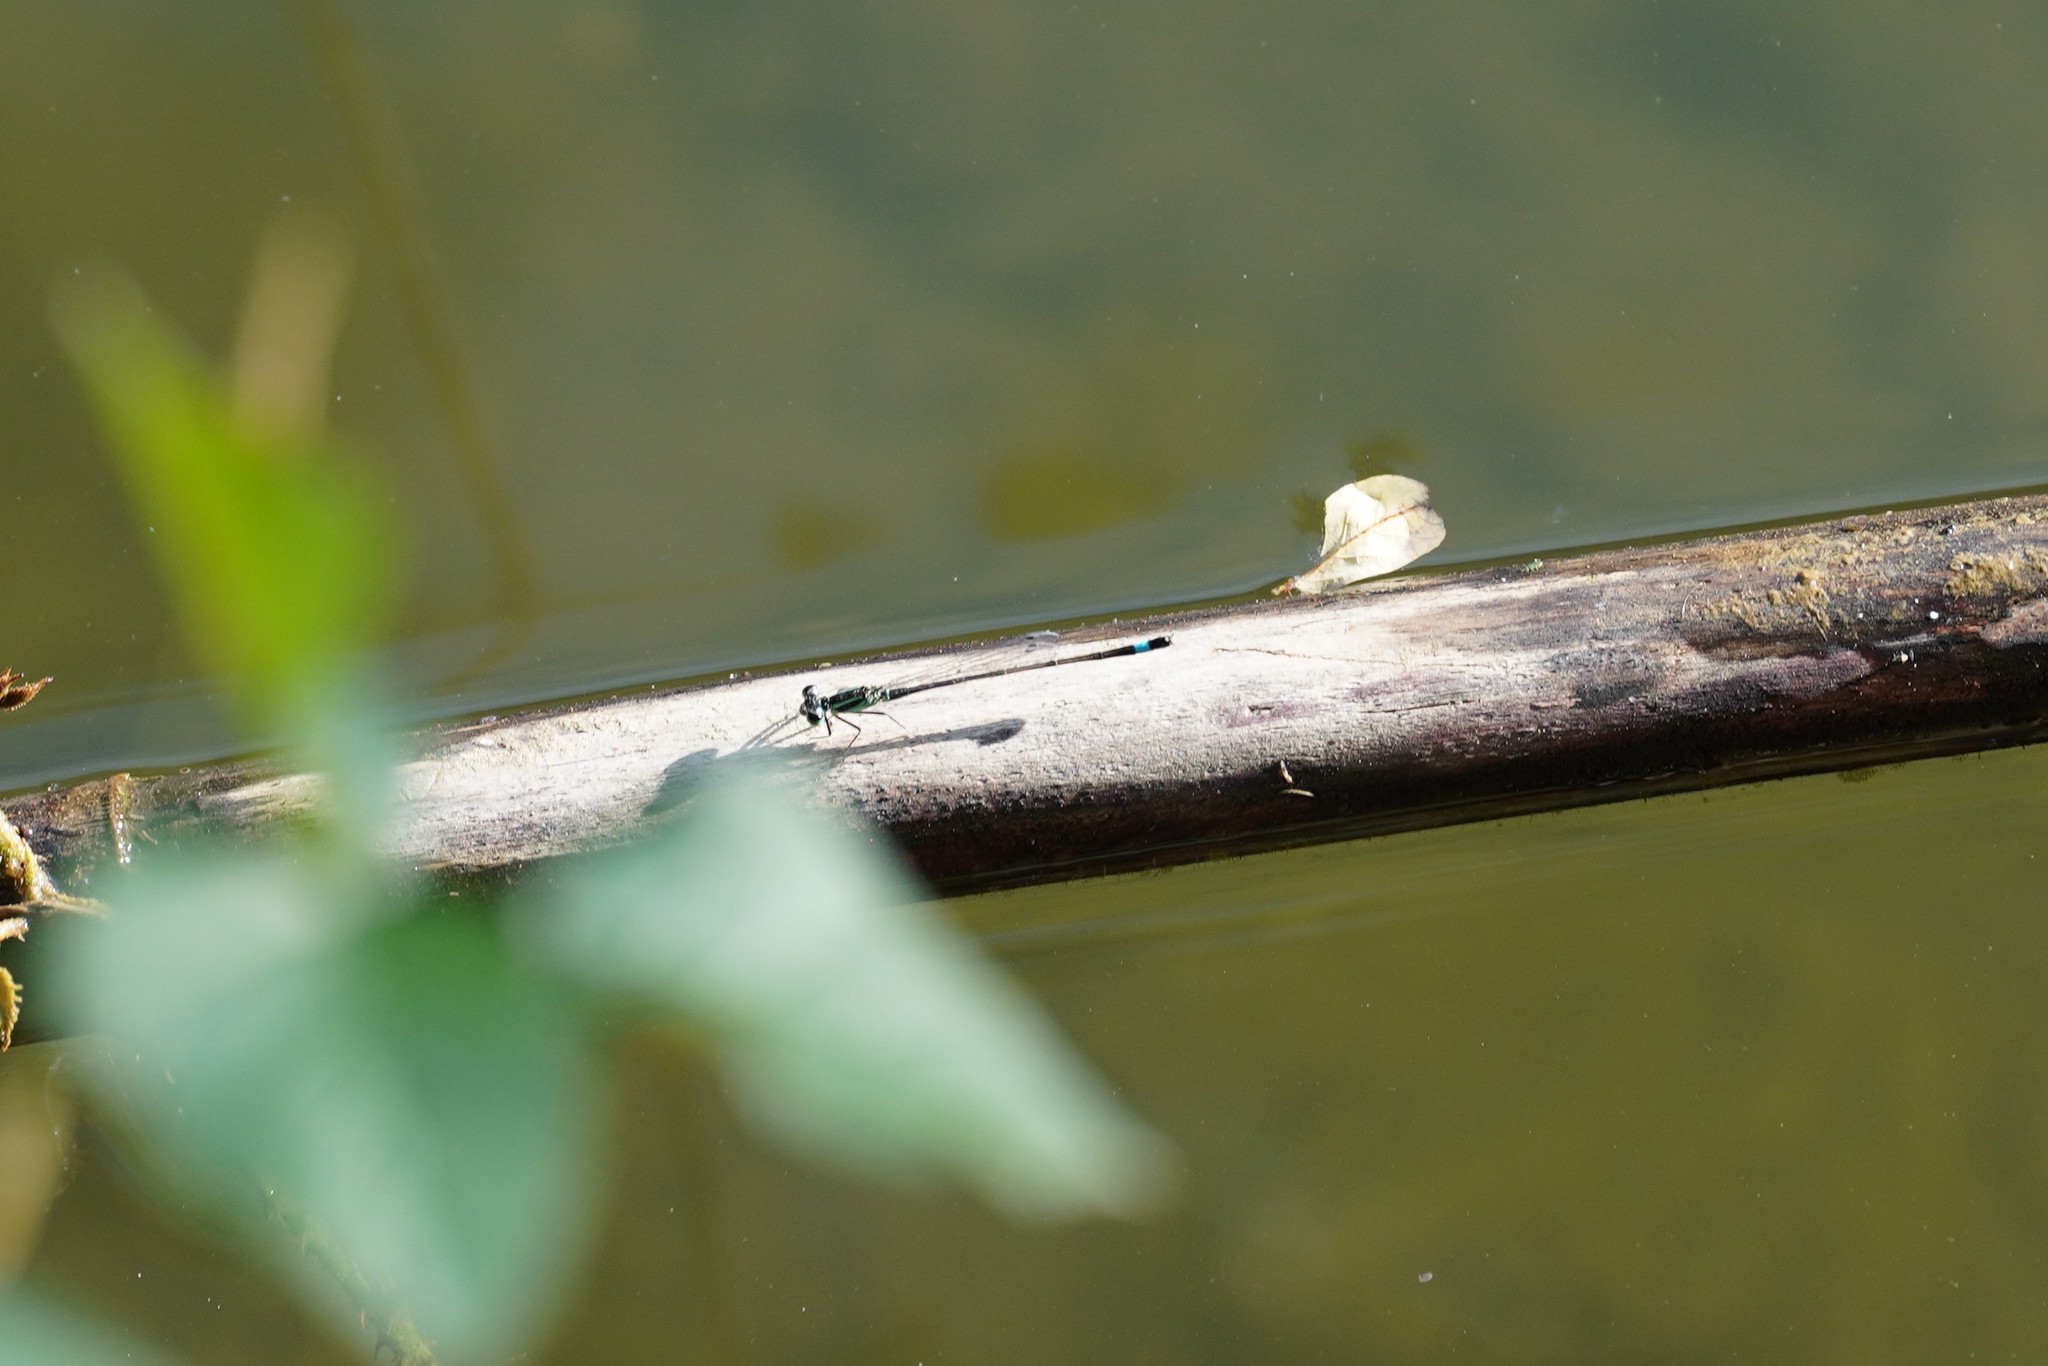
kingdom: Animalia
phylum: Arthropoda
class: Insecta
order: Odonata
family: Coenagrionidae
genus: Ischnura
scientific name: Ischnura elegans
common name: Blue-tailed damselfly
